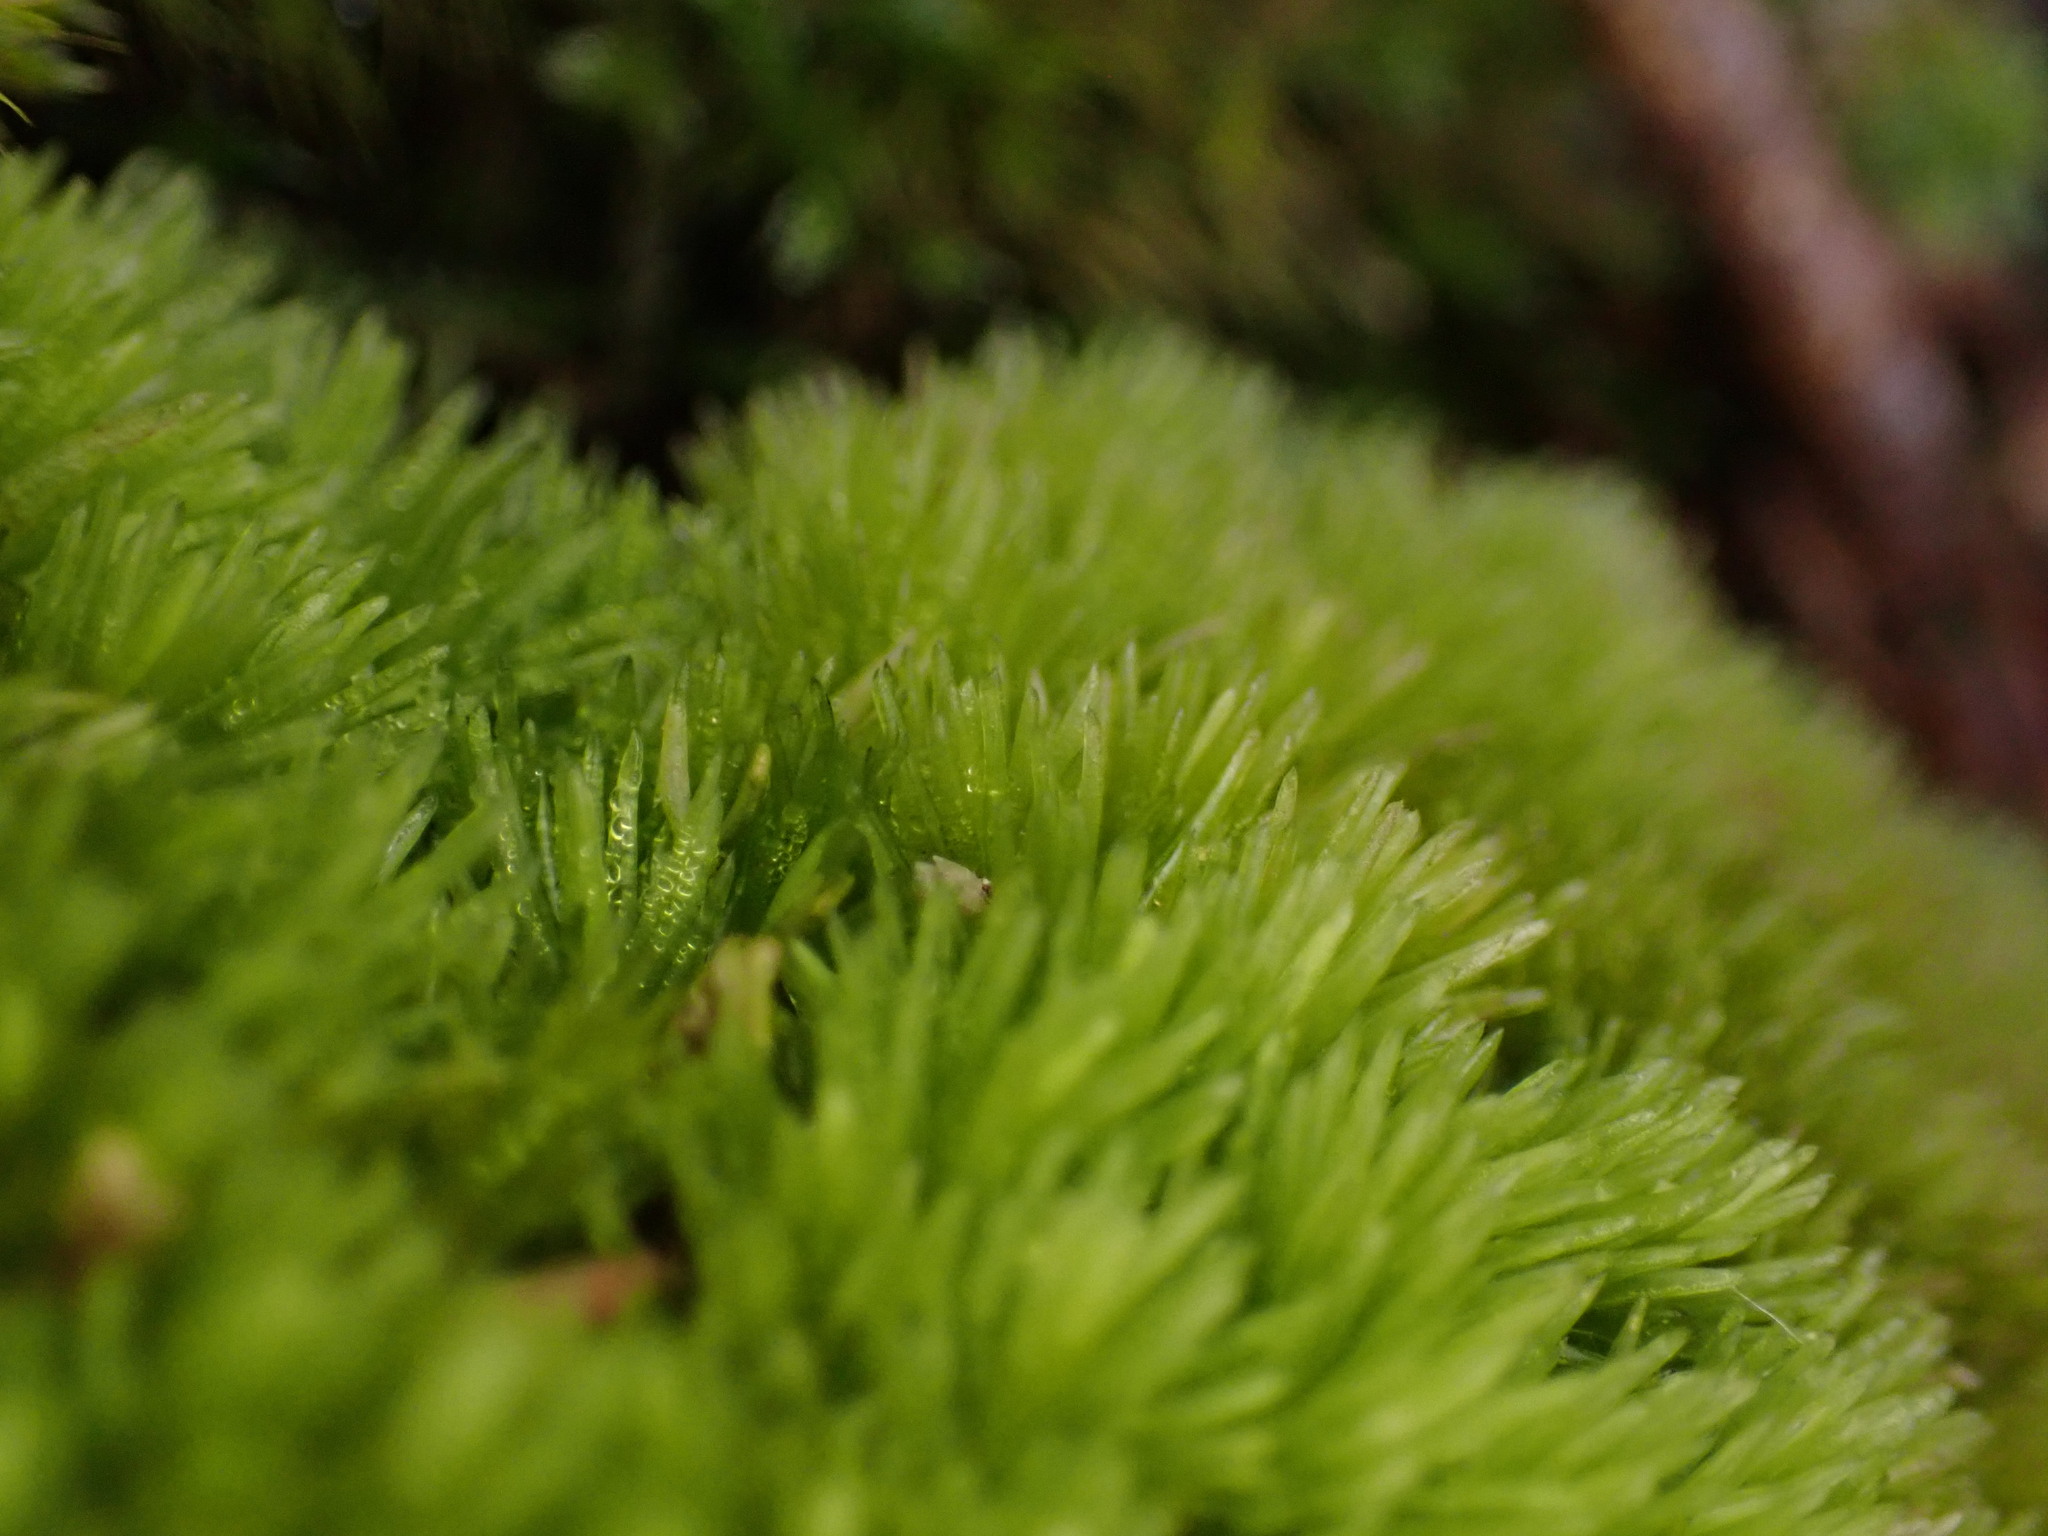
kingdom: Plantae
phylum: Bryophyta
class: Bryopsida
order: Dicranales
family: Leucobryaceae
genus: Leucobryum
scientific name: Leucobryum glaucum
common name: Large white-moss
